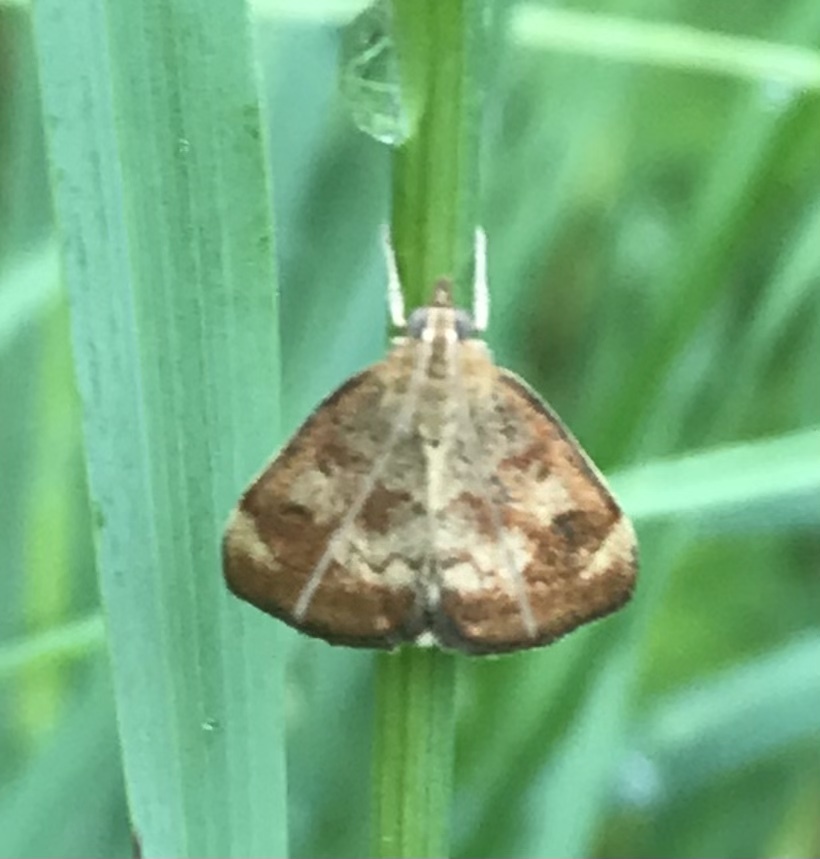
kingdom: Animalia
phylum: Arthropoda
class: Insecta
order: Lepidoptera
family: Crambidae
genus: Pyrausta
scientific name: Pyrausta homonymalis
